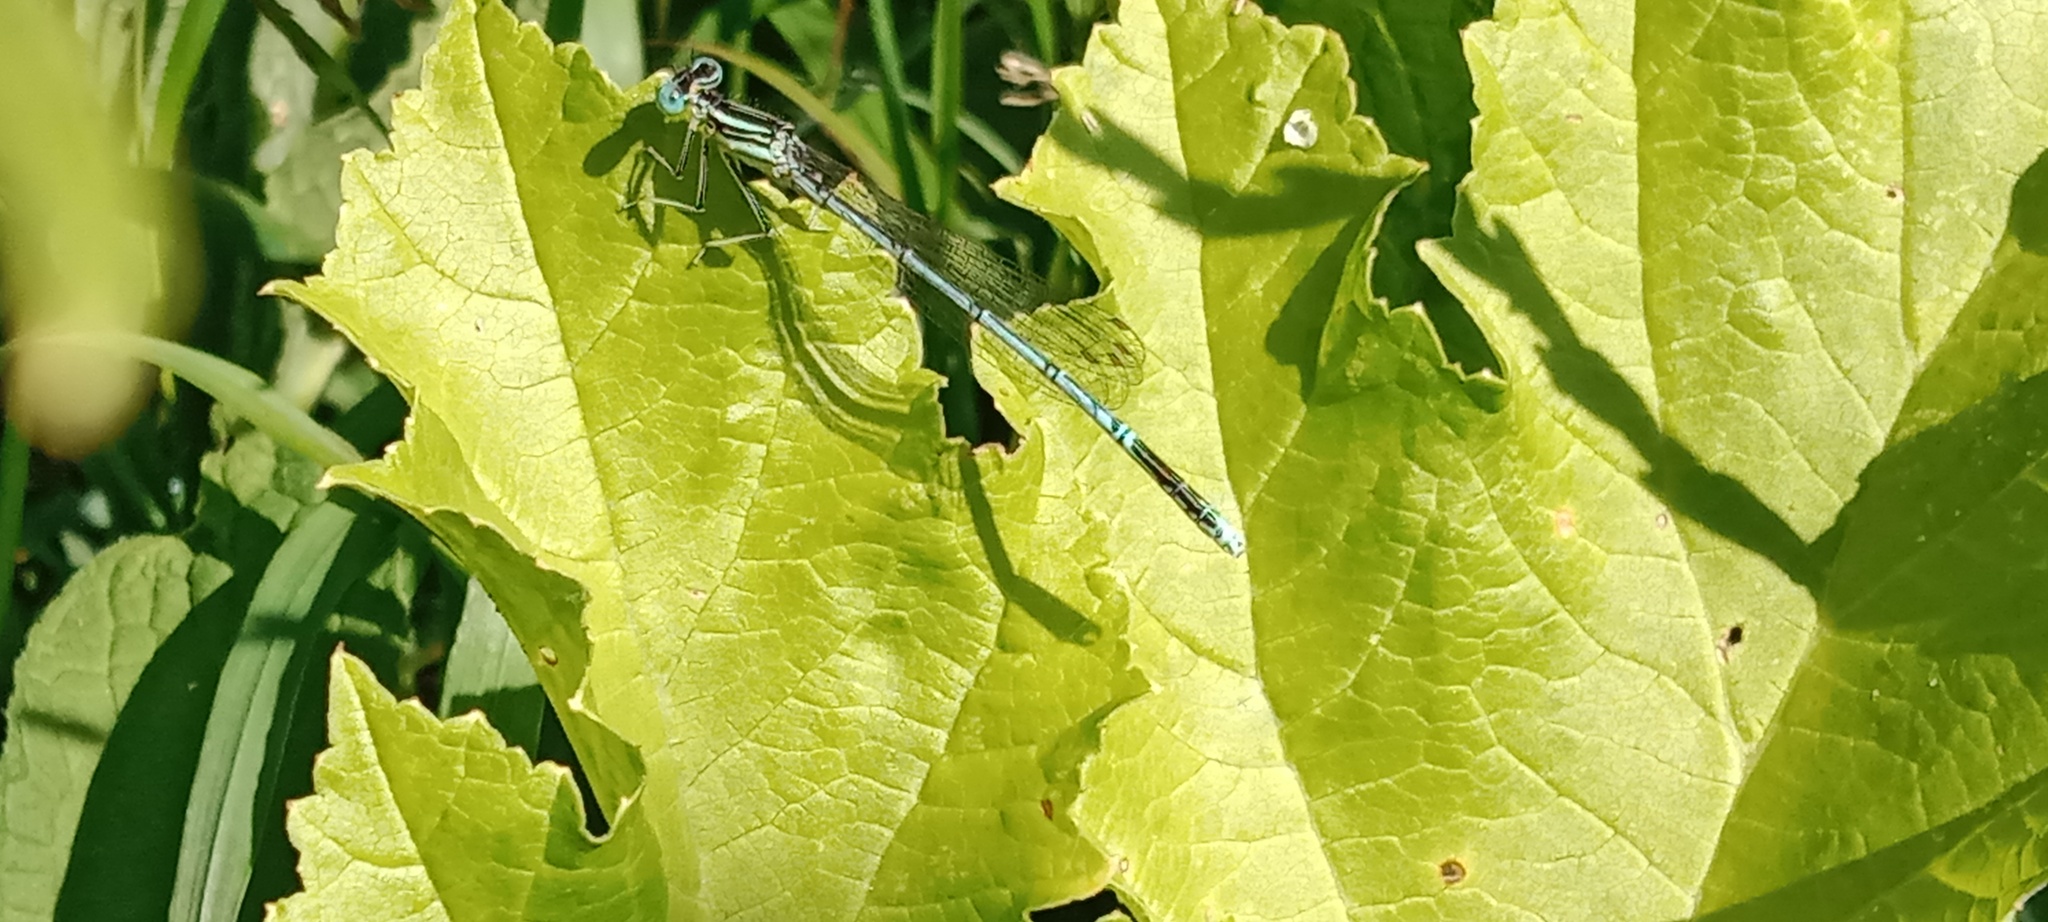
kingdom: Animalia
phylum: Arthropoda
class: Insecta
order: Odonata
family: Platycnemididae
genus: Platycnemis
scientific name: Platycnemis pennipes
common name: White-legged damselfly
